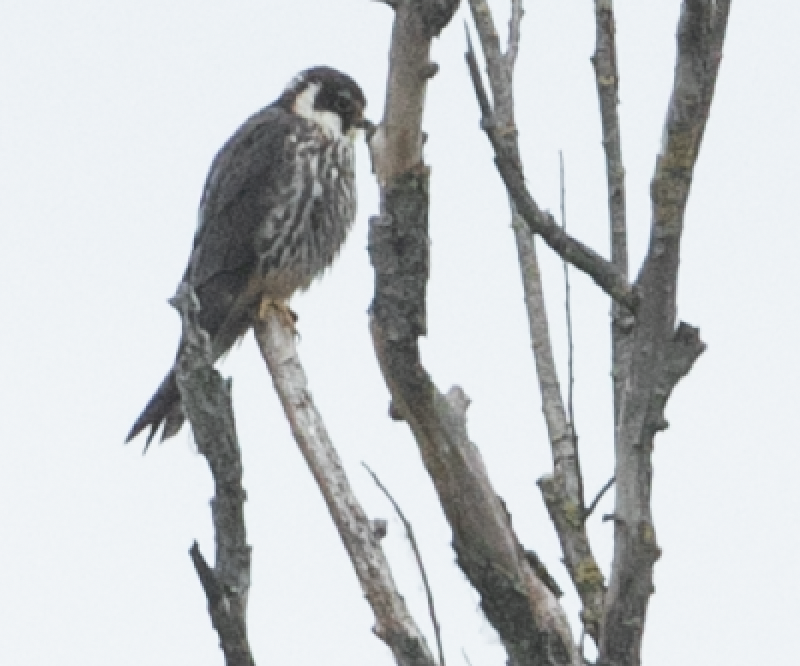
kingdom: Animalia
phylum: Chordata
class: Aves
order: Falconiformes
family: Falconidae
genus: Falco
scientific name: Falco subbuteo
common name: Eurasian hobby
